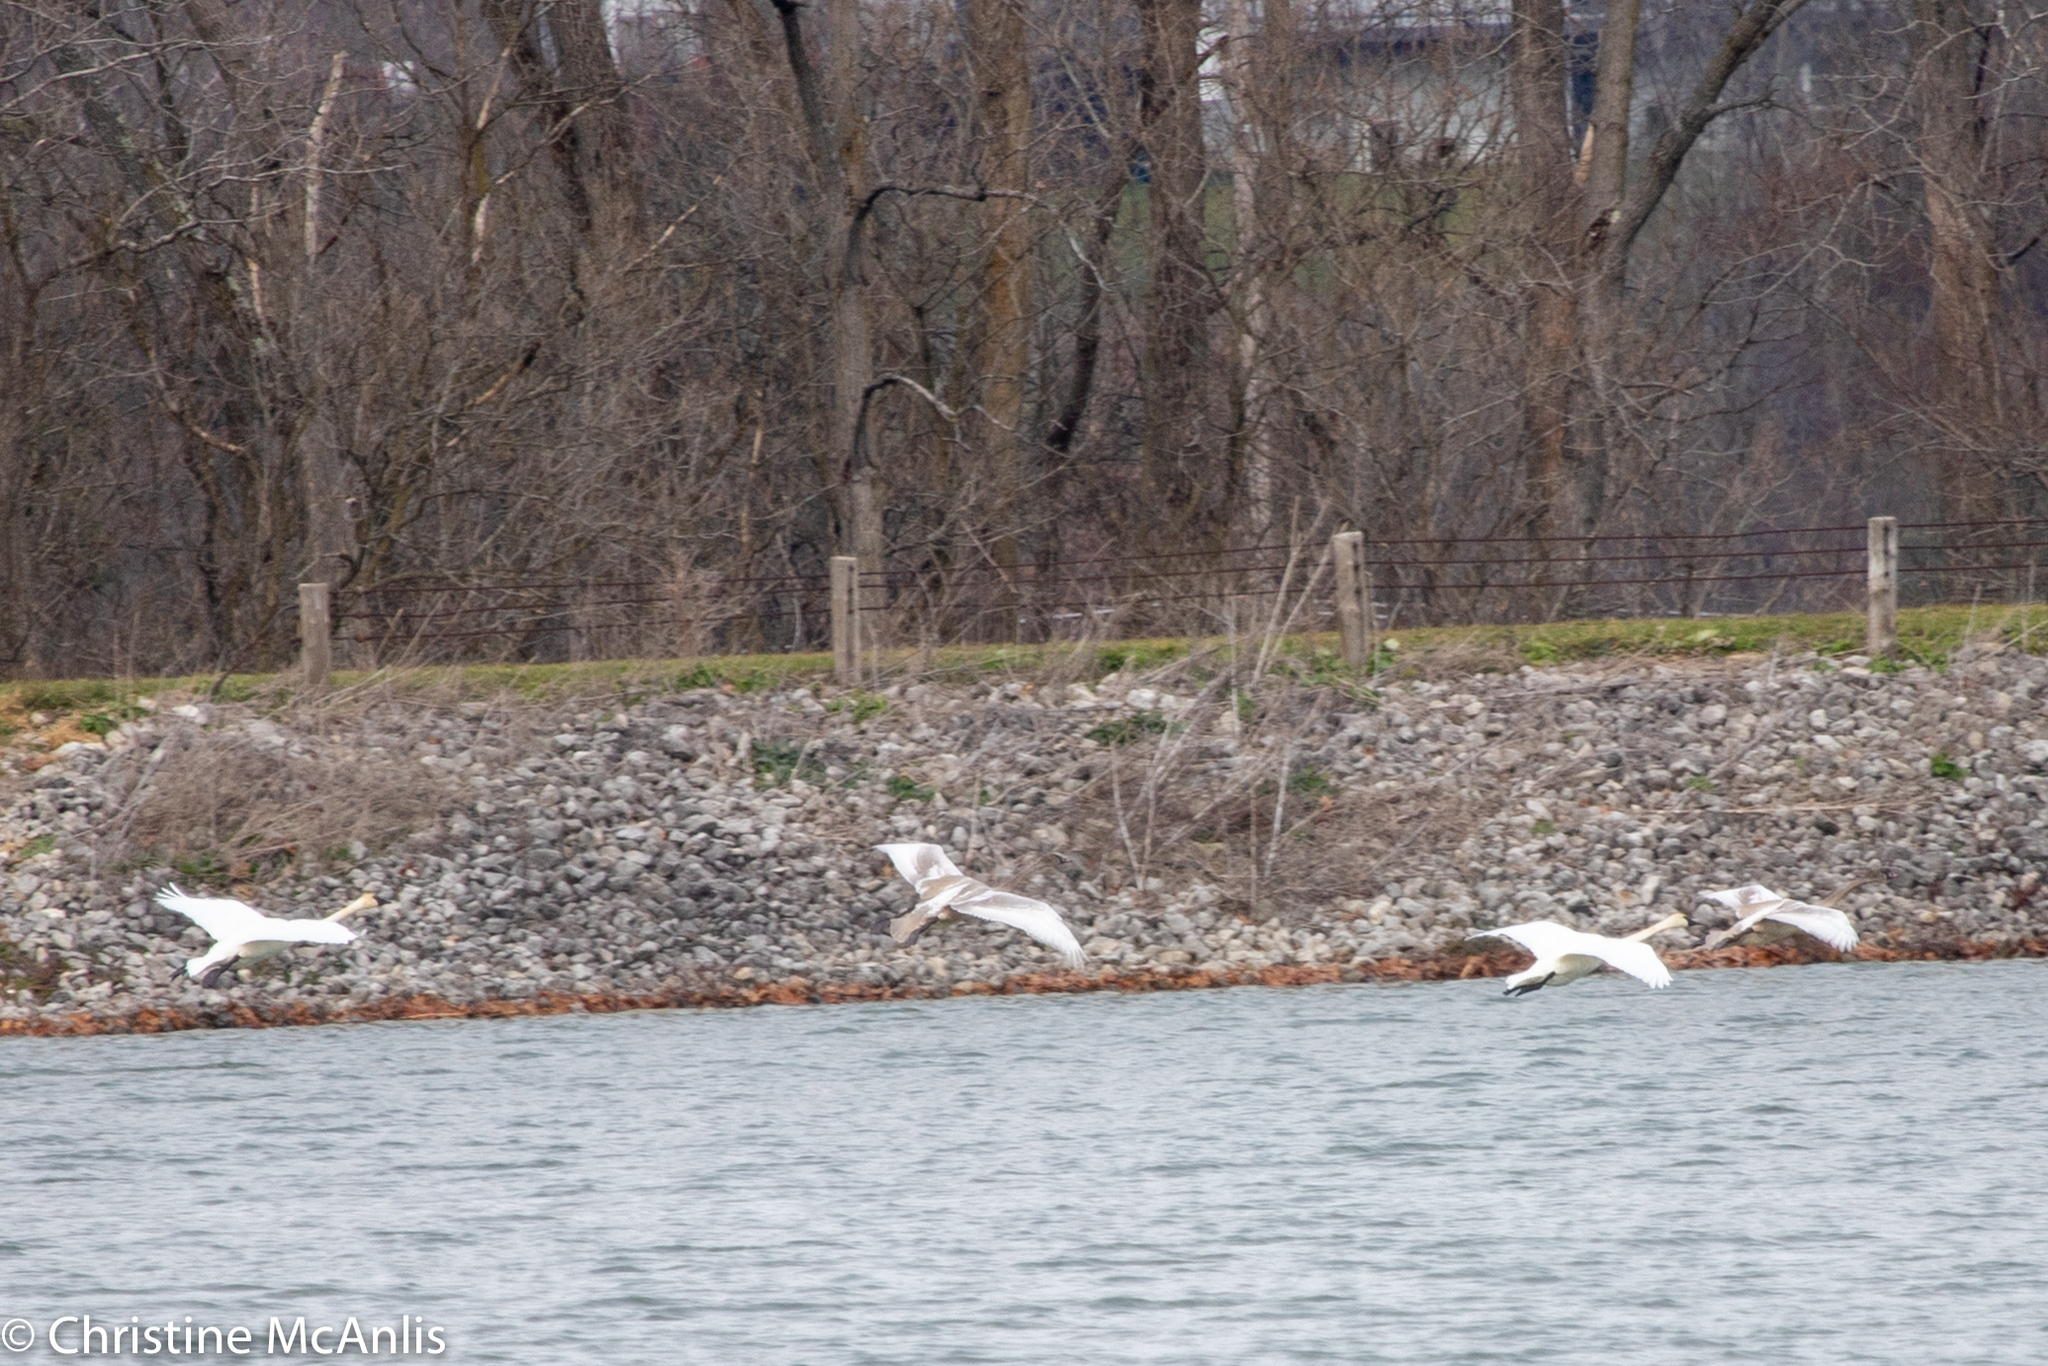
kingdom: Animalia
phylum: Chordata
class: Aves
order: Anseriformes
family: Anatidae
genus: Cygnus
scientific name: Cygnus buccinator
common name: Trumpeter swan
